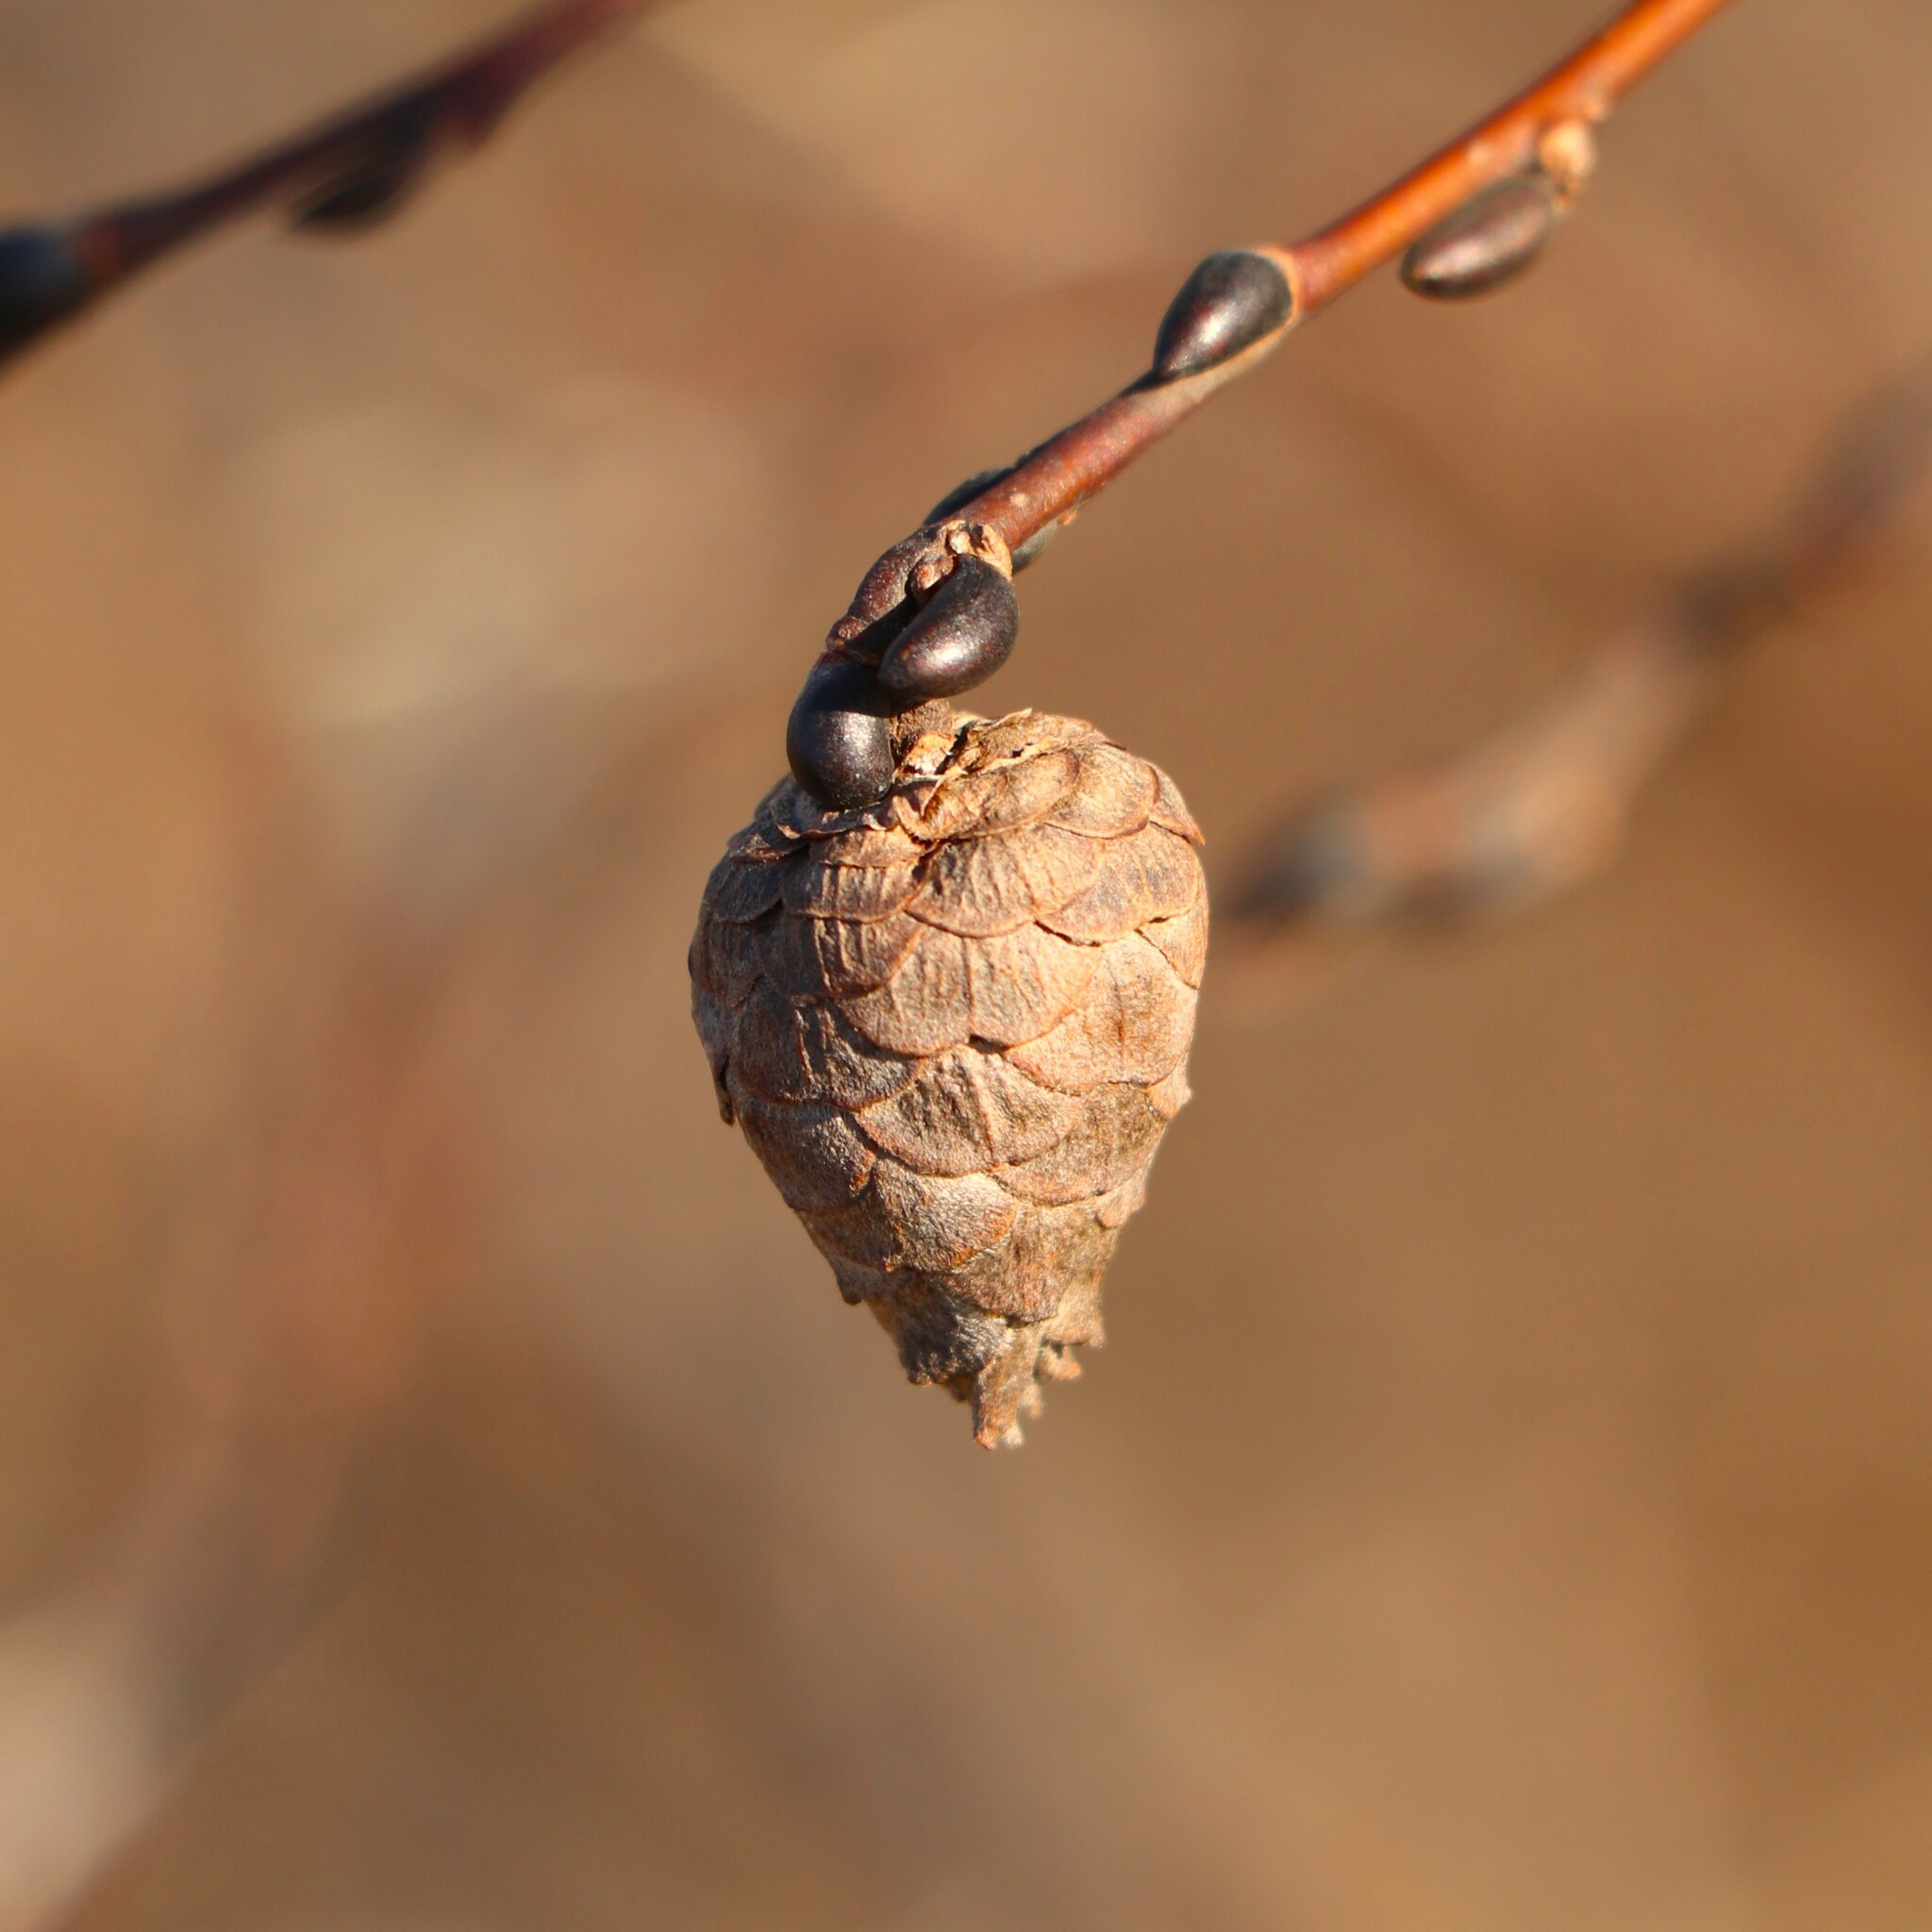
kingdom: Animalia
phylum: Arthropoda
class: Insecta
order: Diptera
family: Cecidomyiidae
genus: Rabdophaga
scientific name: Rabdophaga strobiloides
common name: Willow pinecone gall midge
